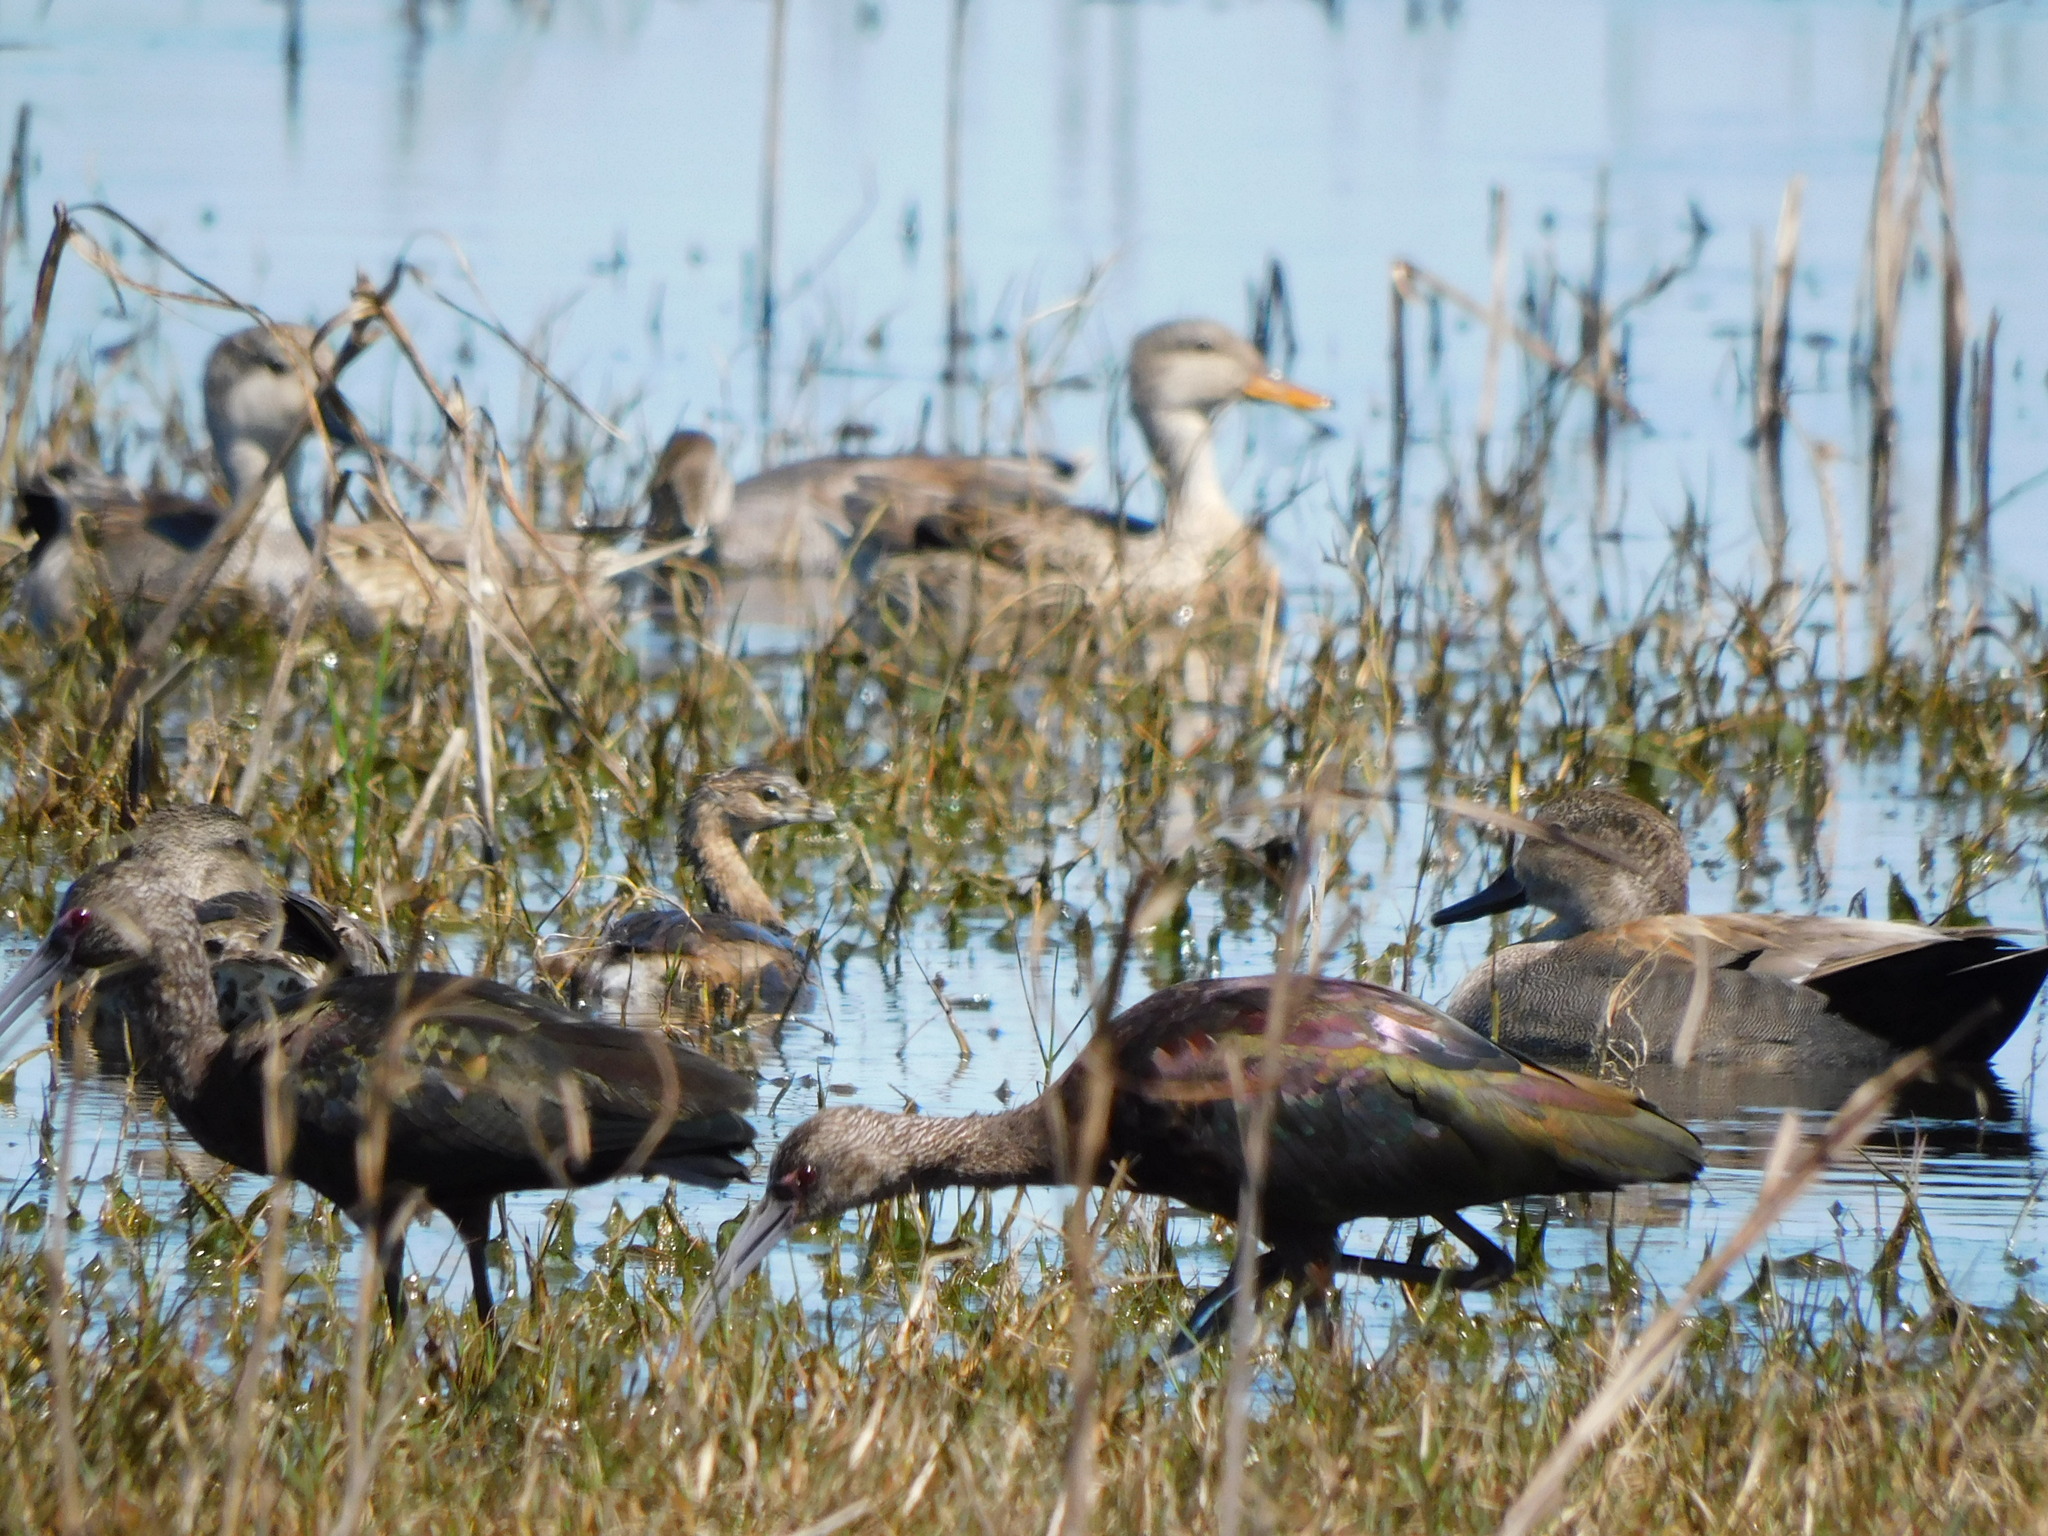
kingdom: Animalia
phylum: Chordata
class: Aves
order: Podicipediformes
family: Podicipedidae
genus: Podilymbus
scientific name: Podilymbus podiceps
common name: Pied-billed grebe
